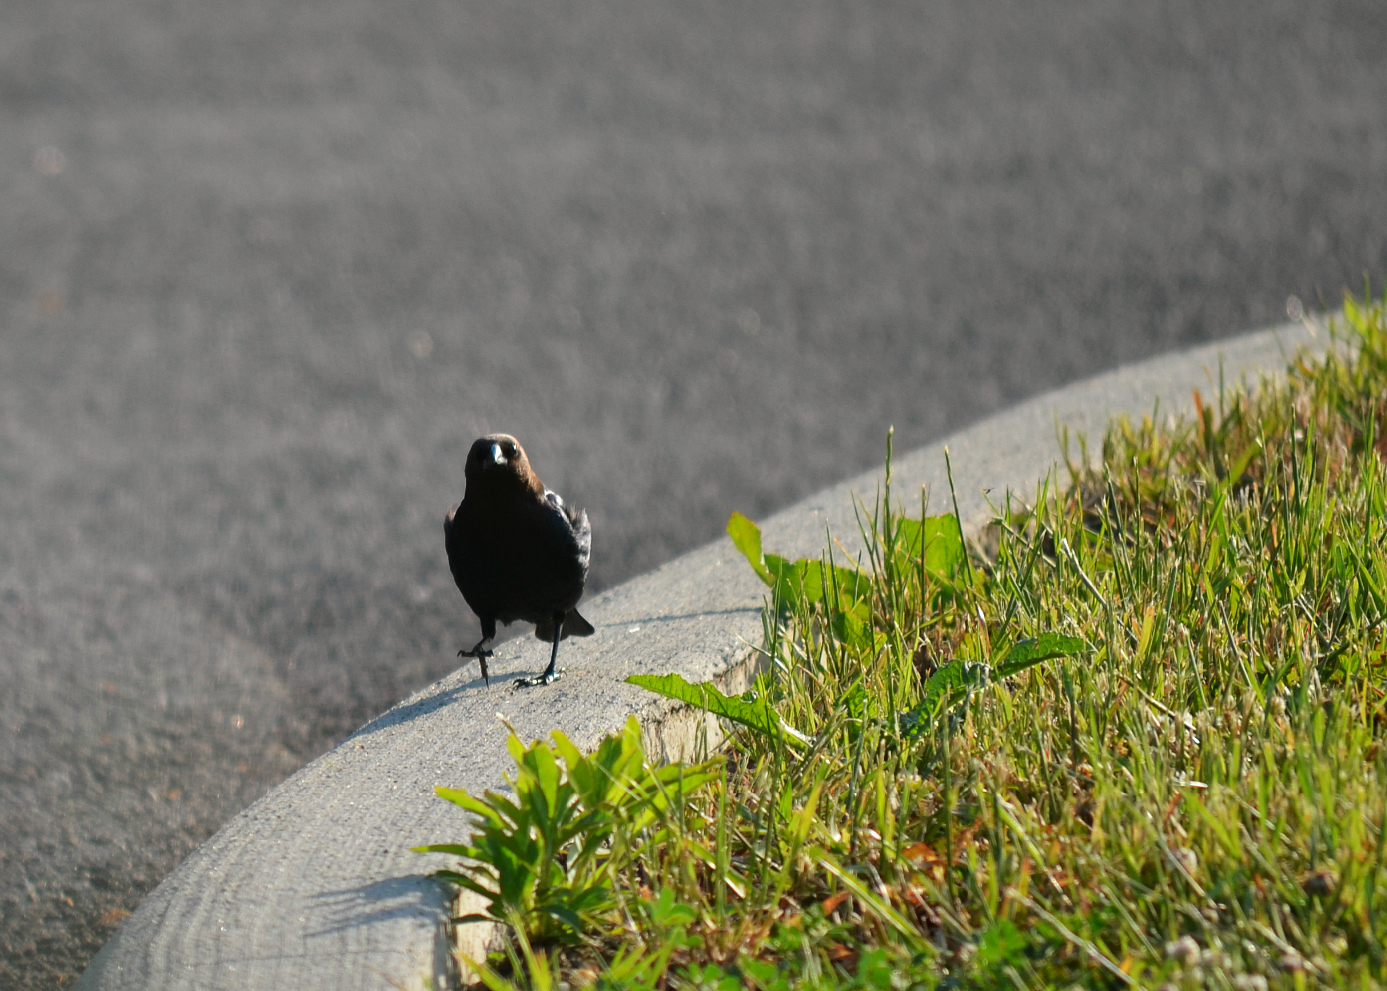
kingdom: Animalia
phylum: Chordata
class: Aves
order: Passeriformes
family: Icteridae
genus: Molothrus
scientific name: Molothrus ater
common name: Brown-headed cowbird
